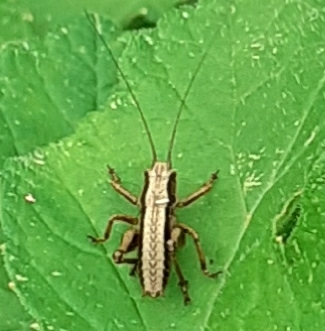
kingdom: Animalia
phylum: Arthropoda
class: Insecta
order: Orthoptera
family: Tettigoniidae
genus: Pholidoptera
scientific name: Pholidoptera griseoaptera
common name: Dark bush-cricket
